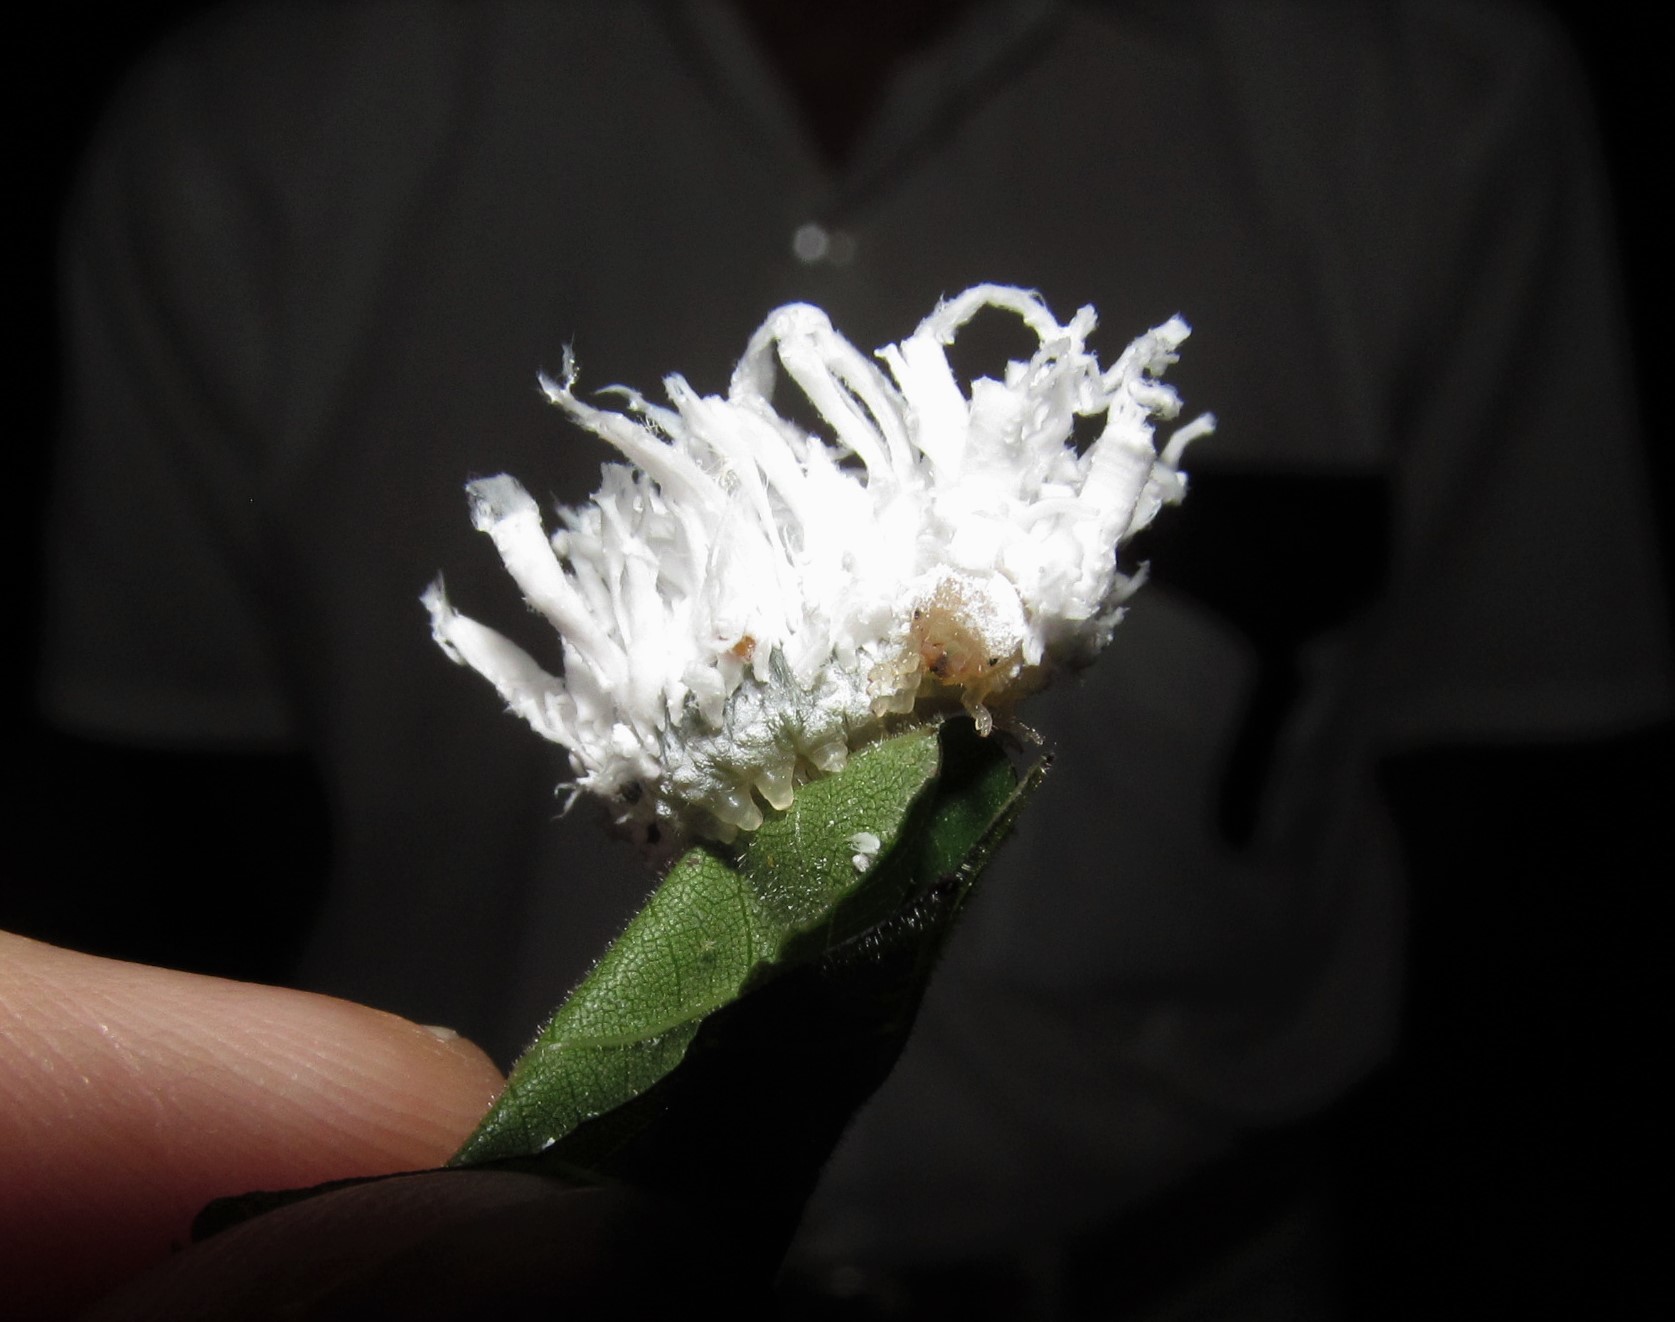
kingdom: Animalia
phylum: Arthropoda
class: Insecta
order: Hymenoptera
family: Tenthredinidae
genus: Eriocampa
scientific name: Eriocampa juglandis
